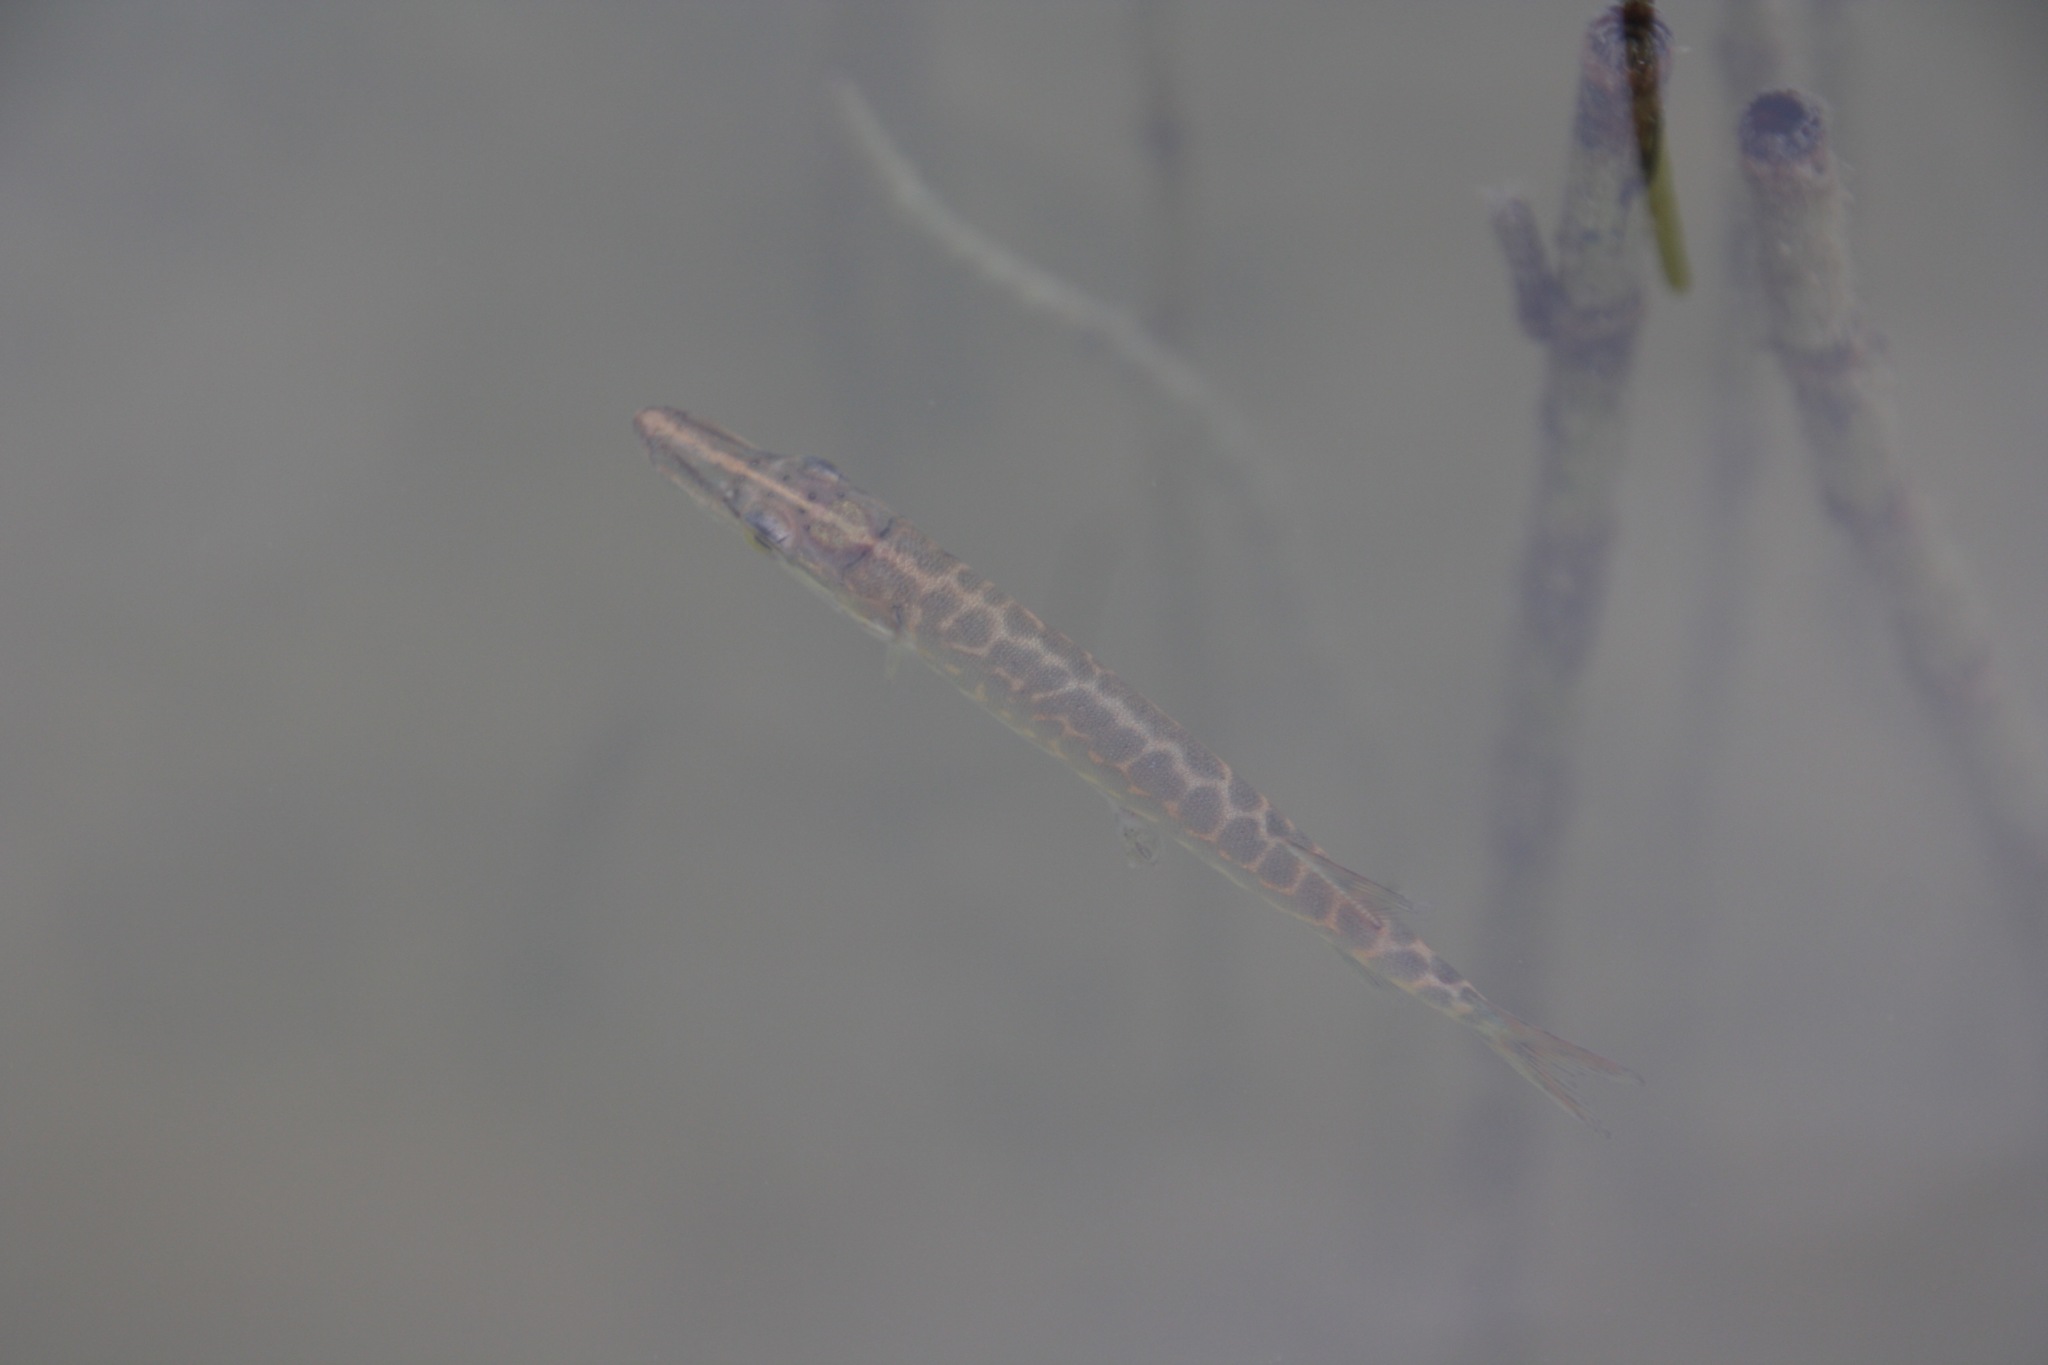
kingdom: Animalia
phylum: Chordata
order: Esociformes
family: Esocidae
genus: Esox
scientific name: Esox lucius
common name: Northern pike
